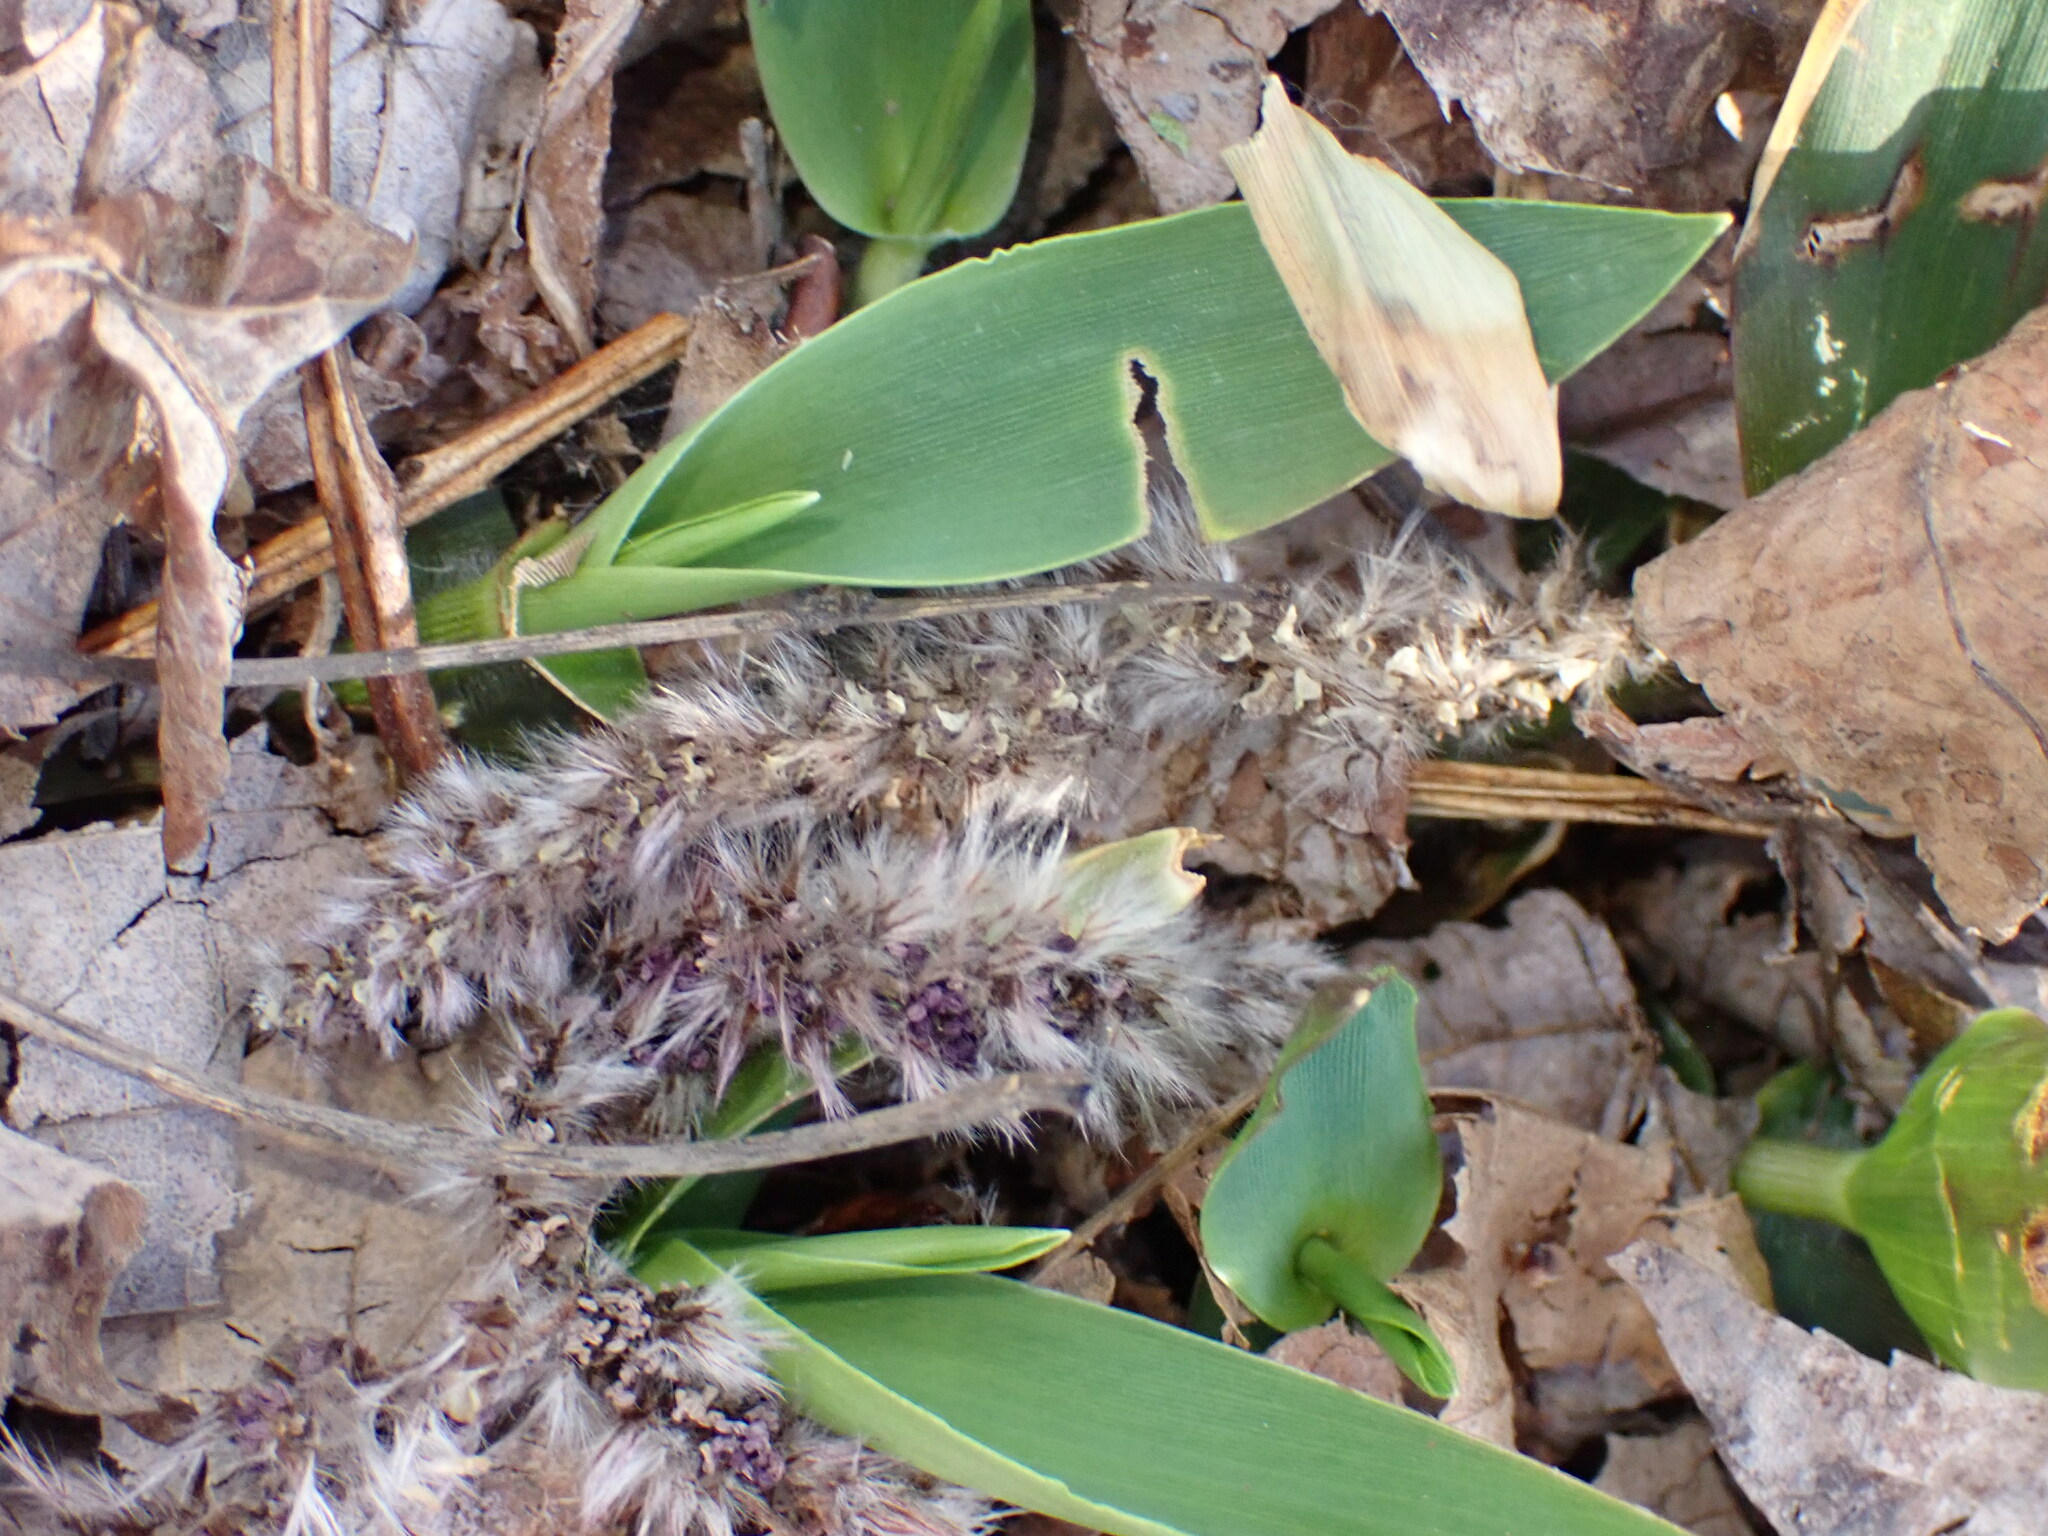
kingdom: Plantae
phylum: Tracheophyta
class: Liliopsida
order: Poales
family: Poaceae
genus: Dichanthelium
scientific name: Dichanthelium
